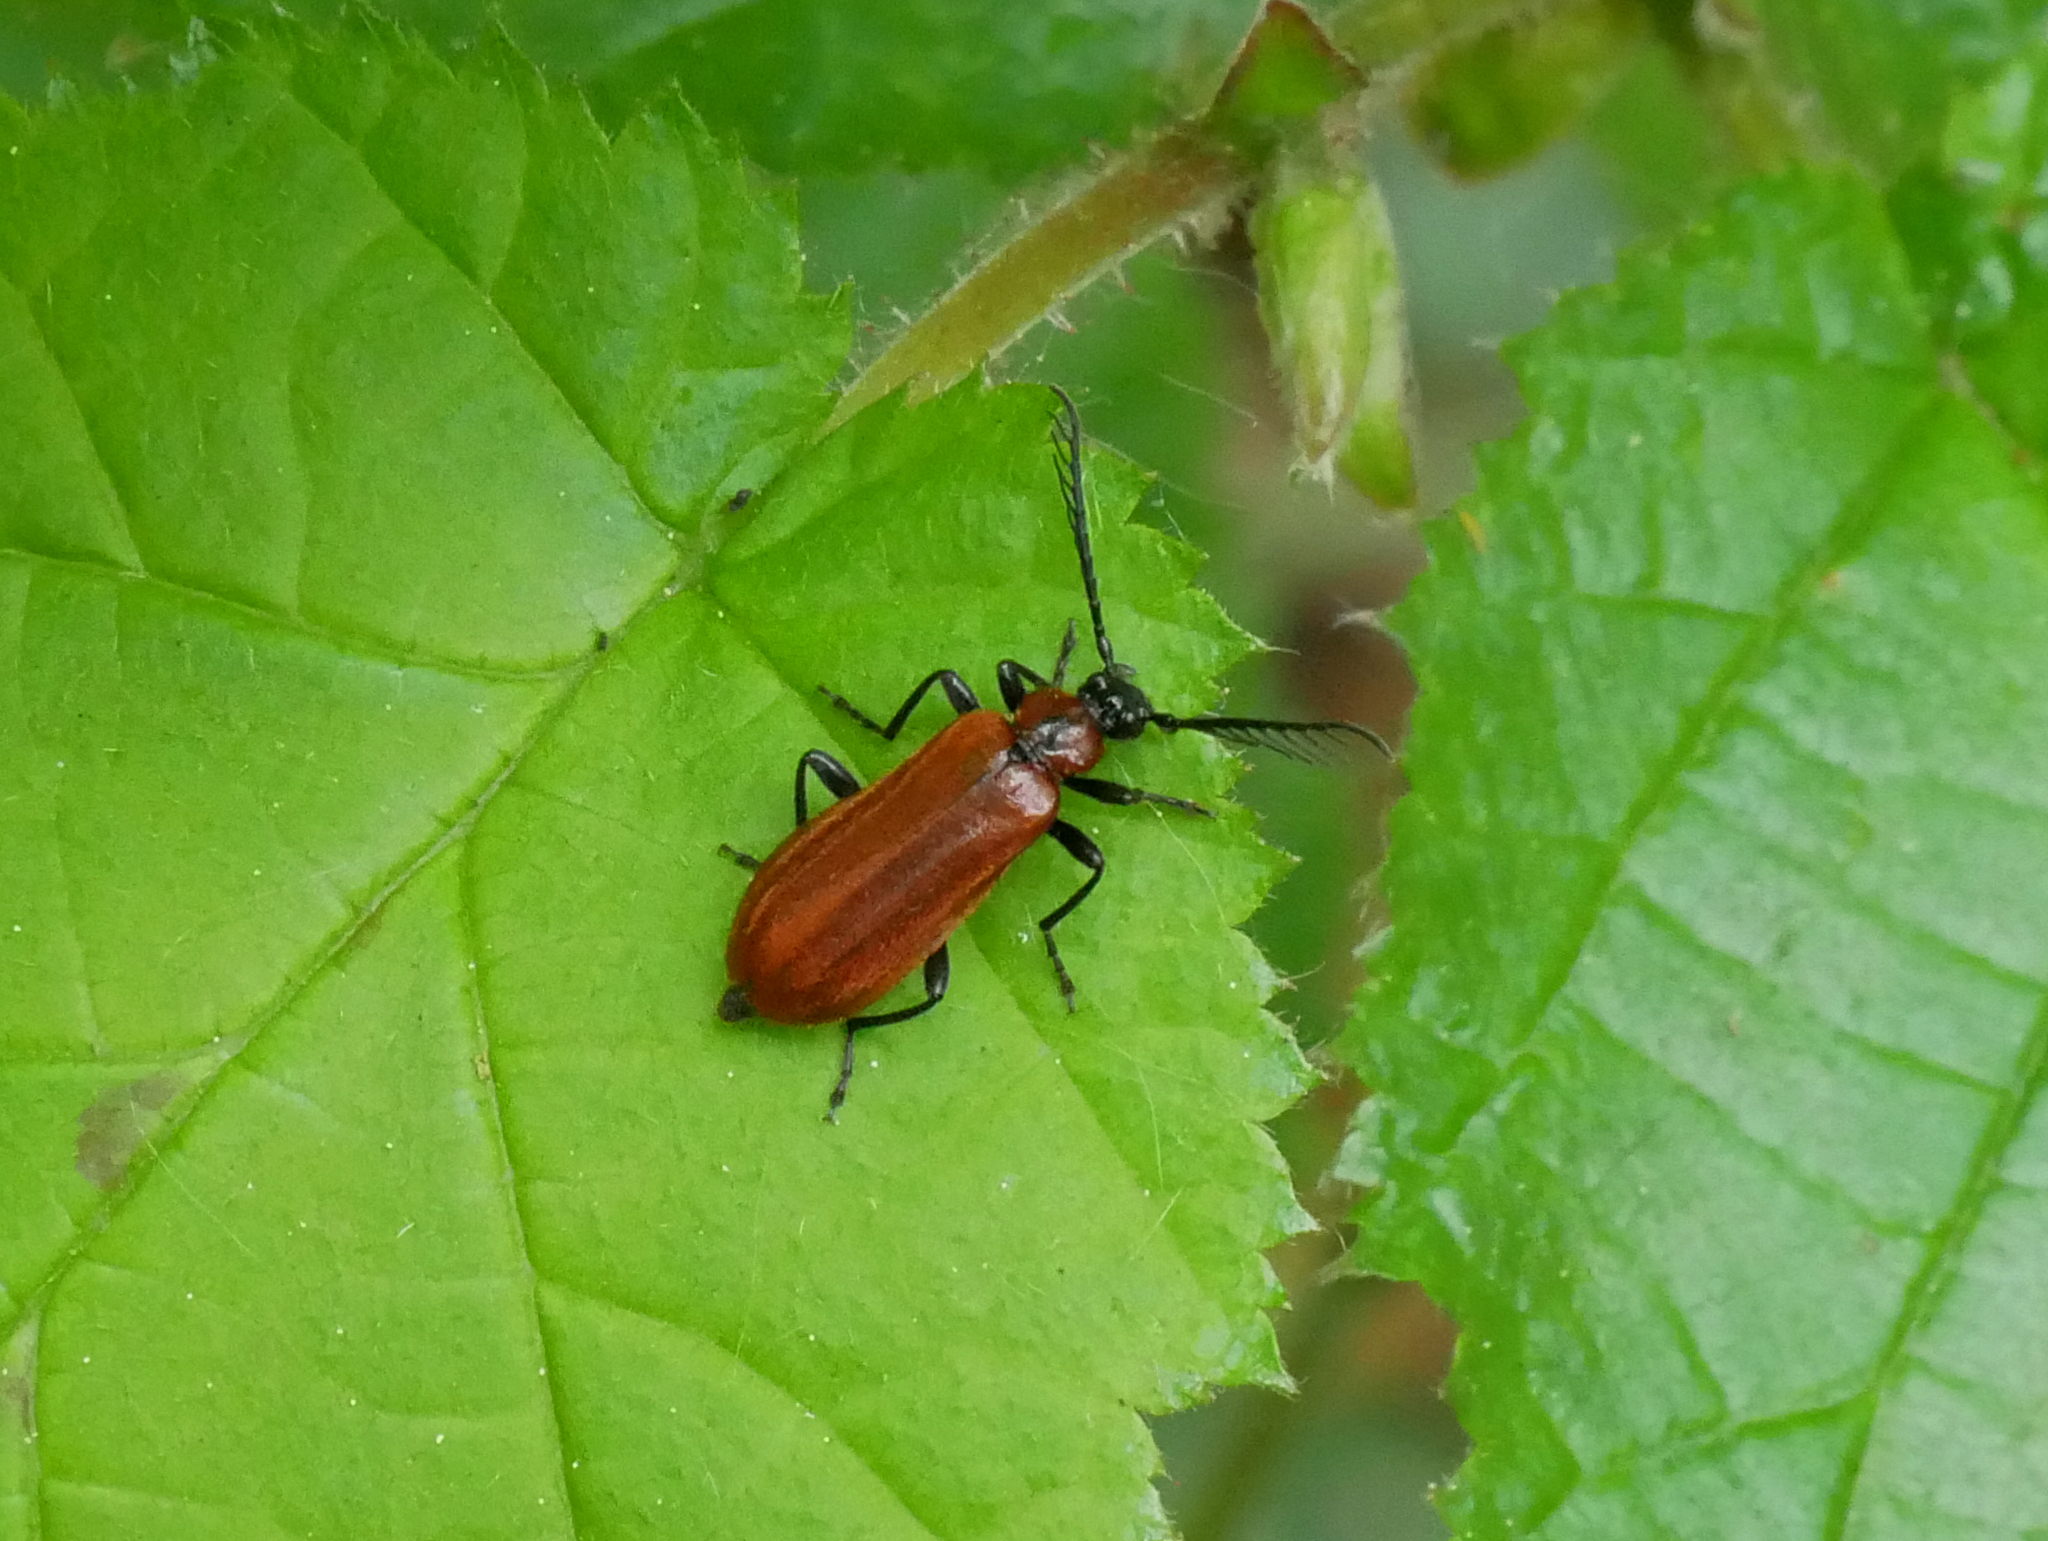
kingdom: Animalia
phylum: Arthropoda
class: Insecta
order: Coleoptera
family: Pyrochroidae
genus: Schizotus
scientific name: Schizotus pectinicornis
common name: Scarce cardinal beetle
